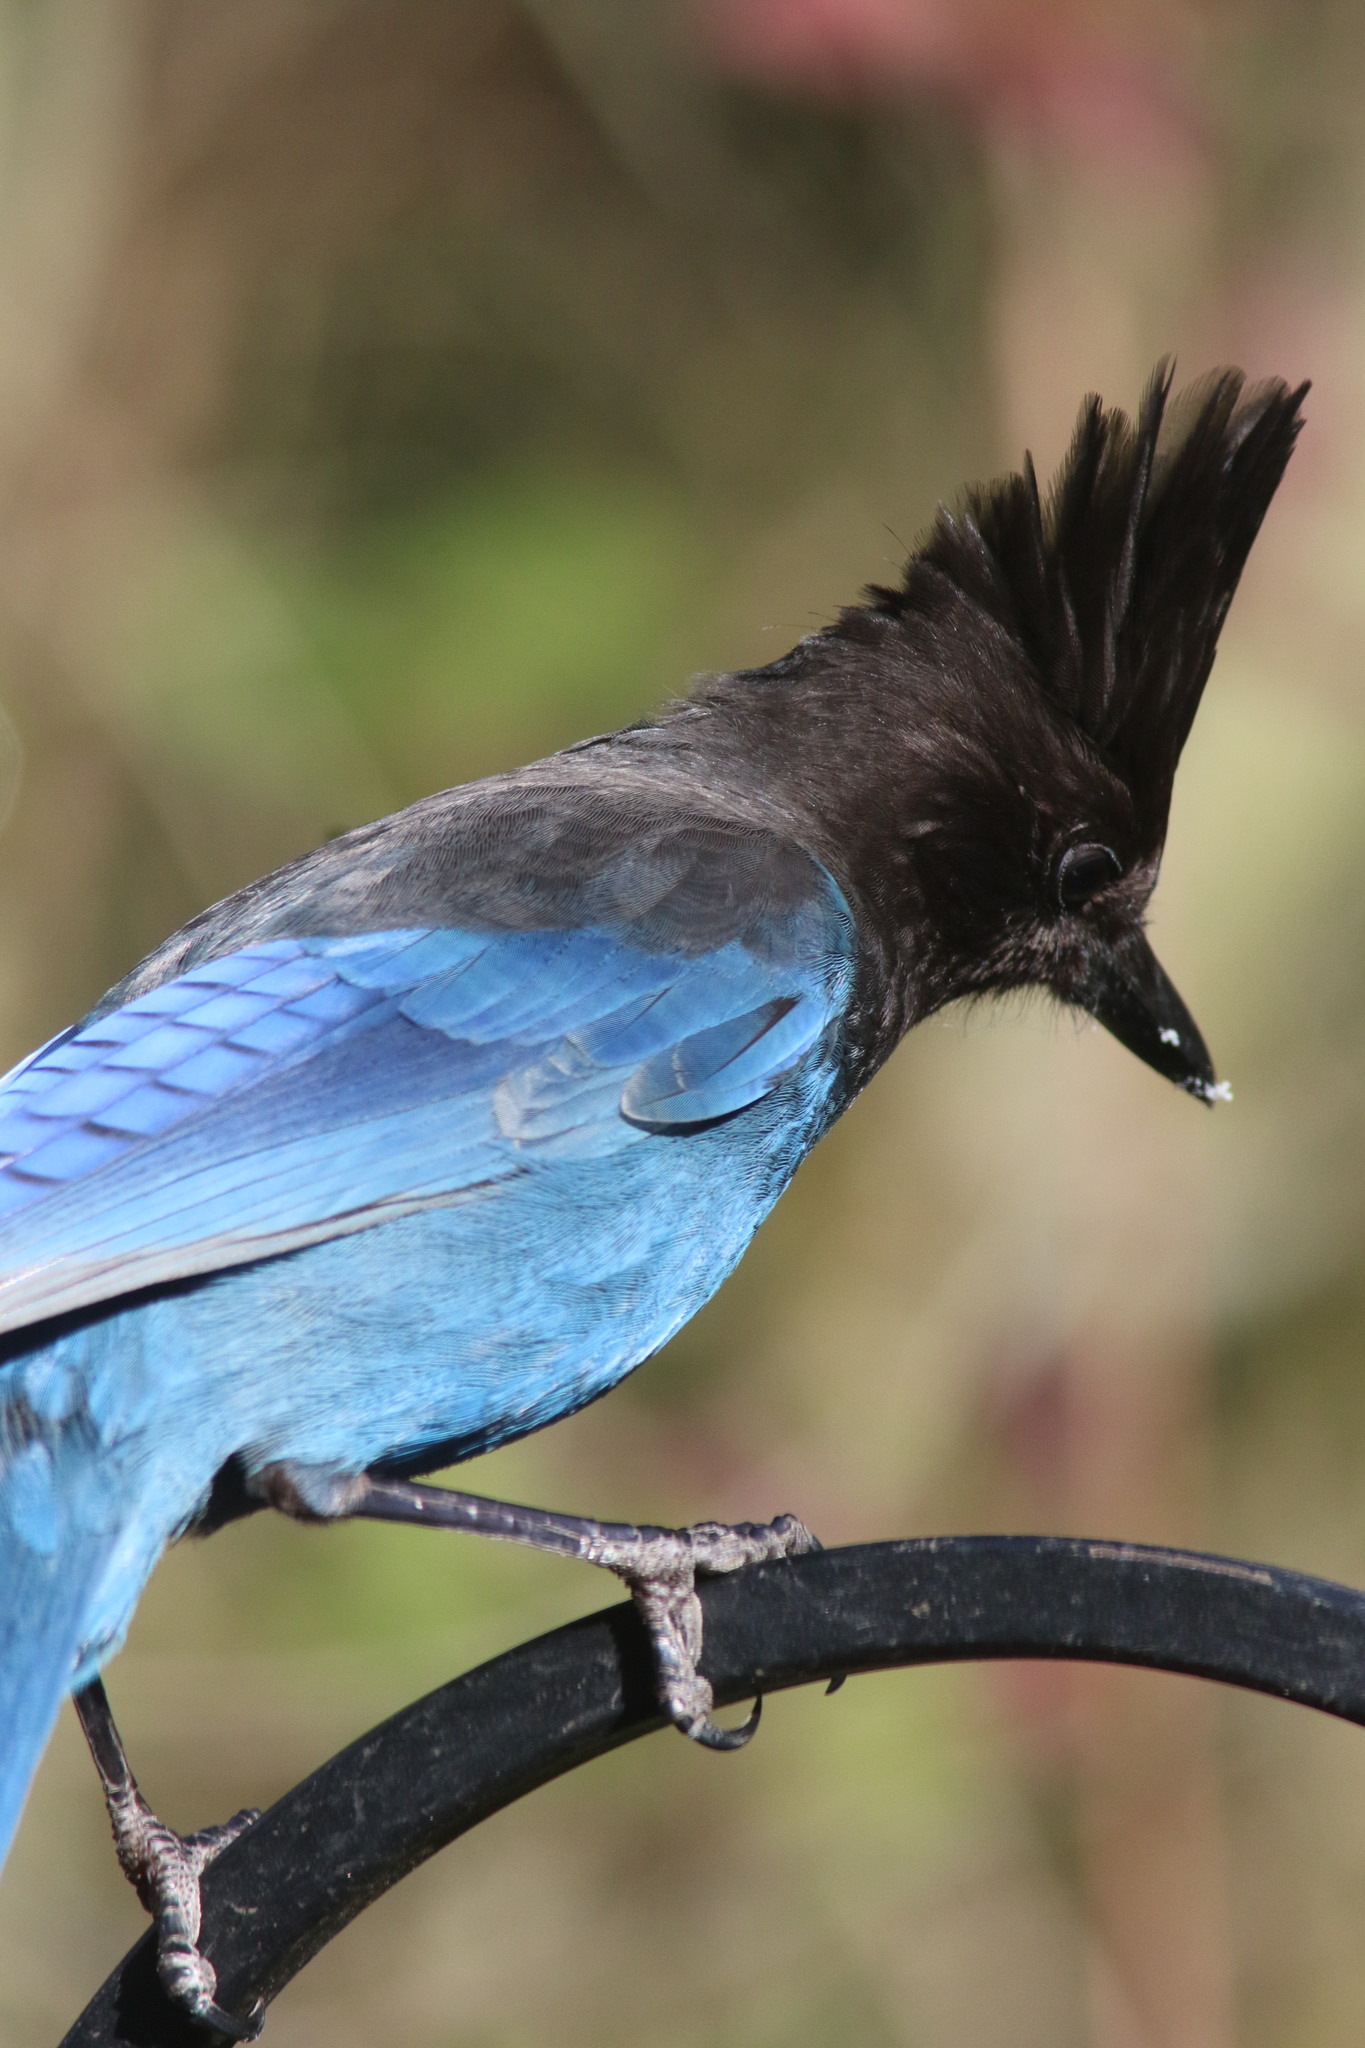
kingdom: Animalia
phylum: Chordata
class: Aves
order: Passeriformes
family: Corvidae
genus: Cyanocitta
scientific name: Cyanocitta stelleri
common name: Steller's jay
